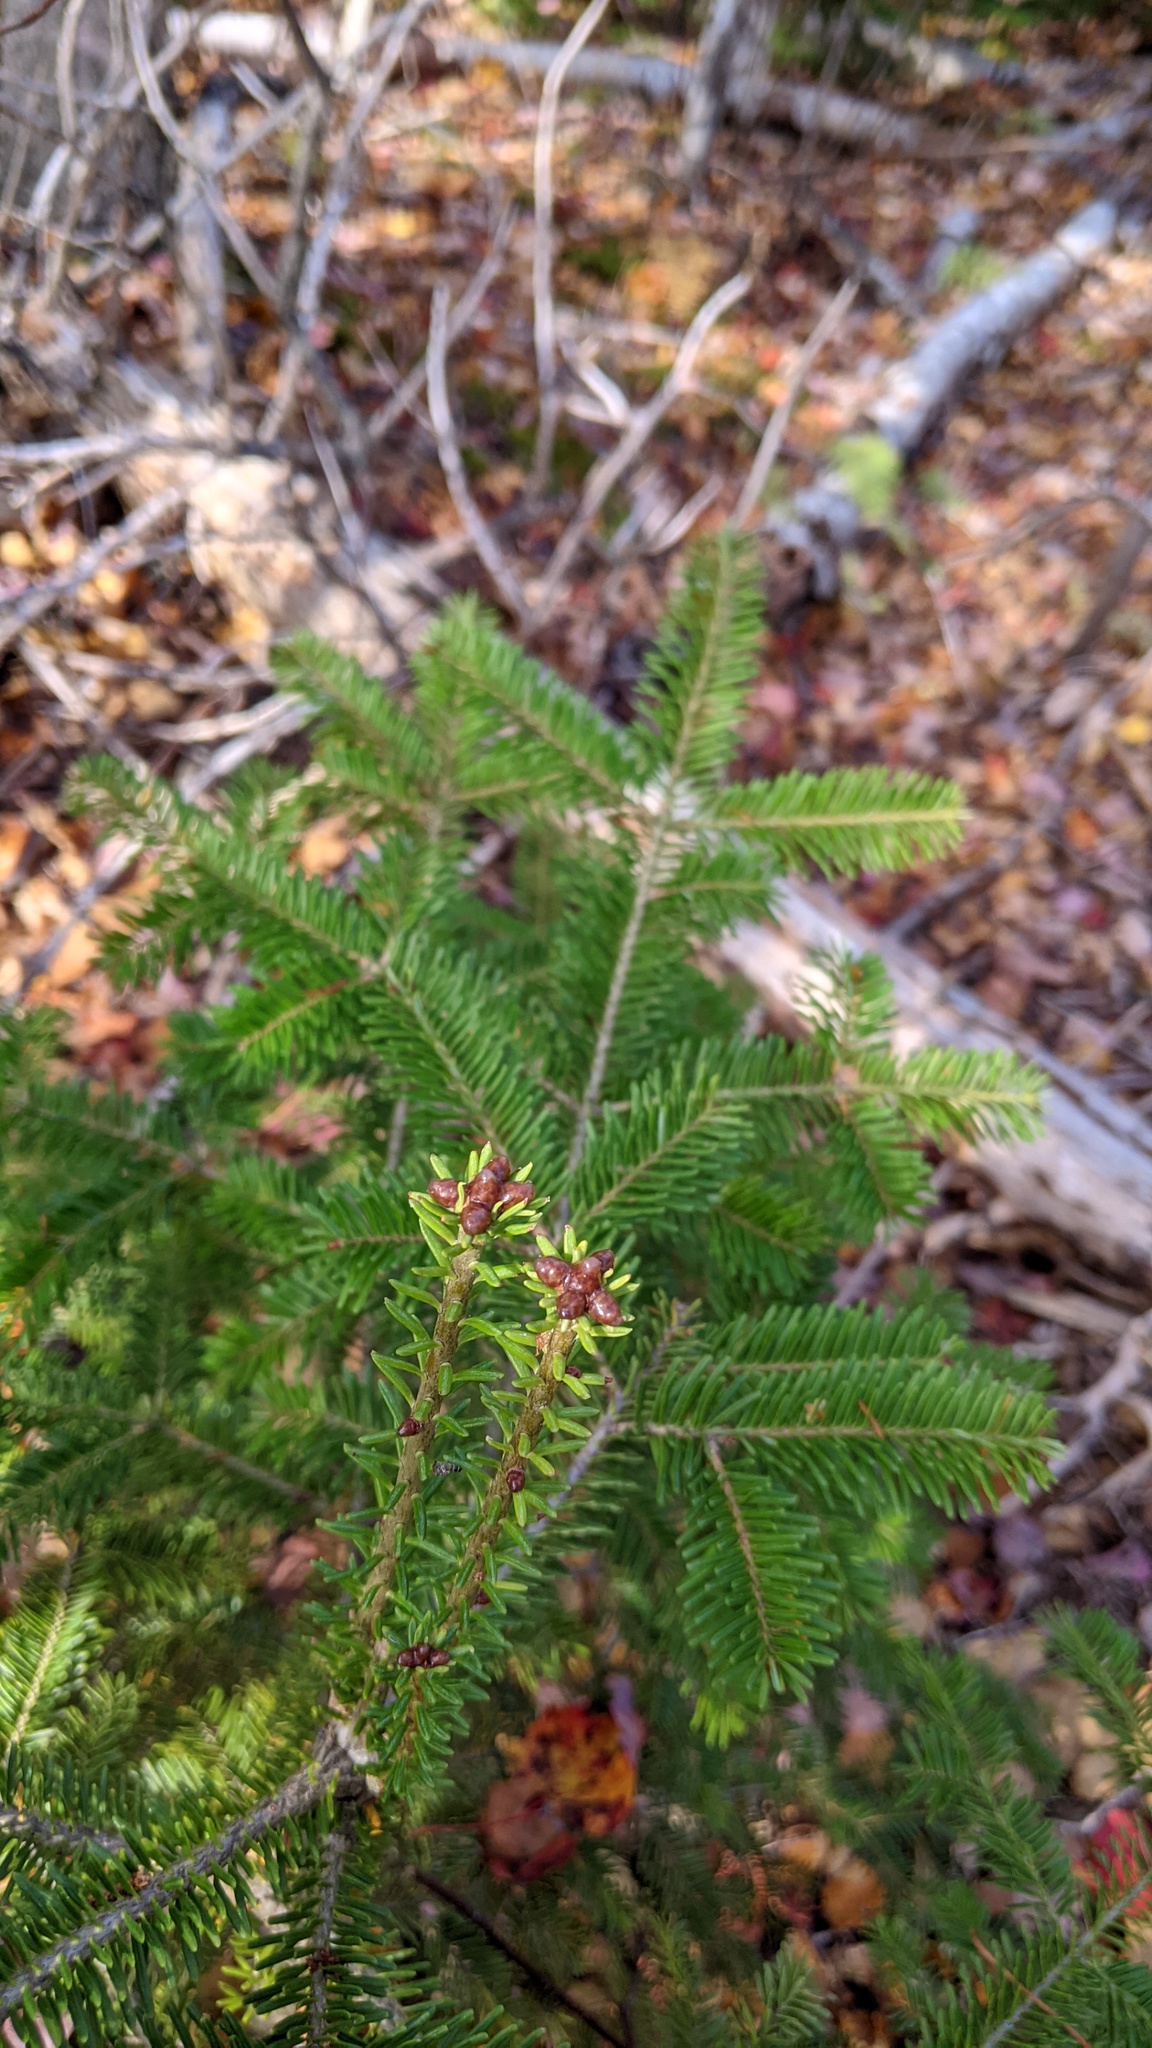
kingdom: Plantae
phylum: Tracheophyta
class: Pinopsida
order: Pinales
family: Pinaceae
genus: Abies
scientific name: Abies balsamea
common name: Balsam fir
